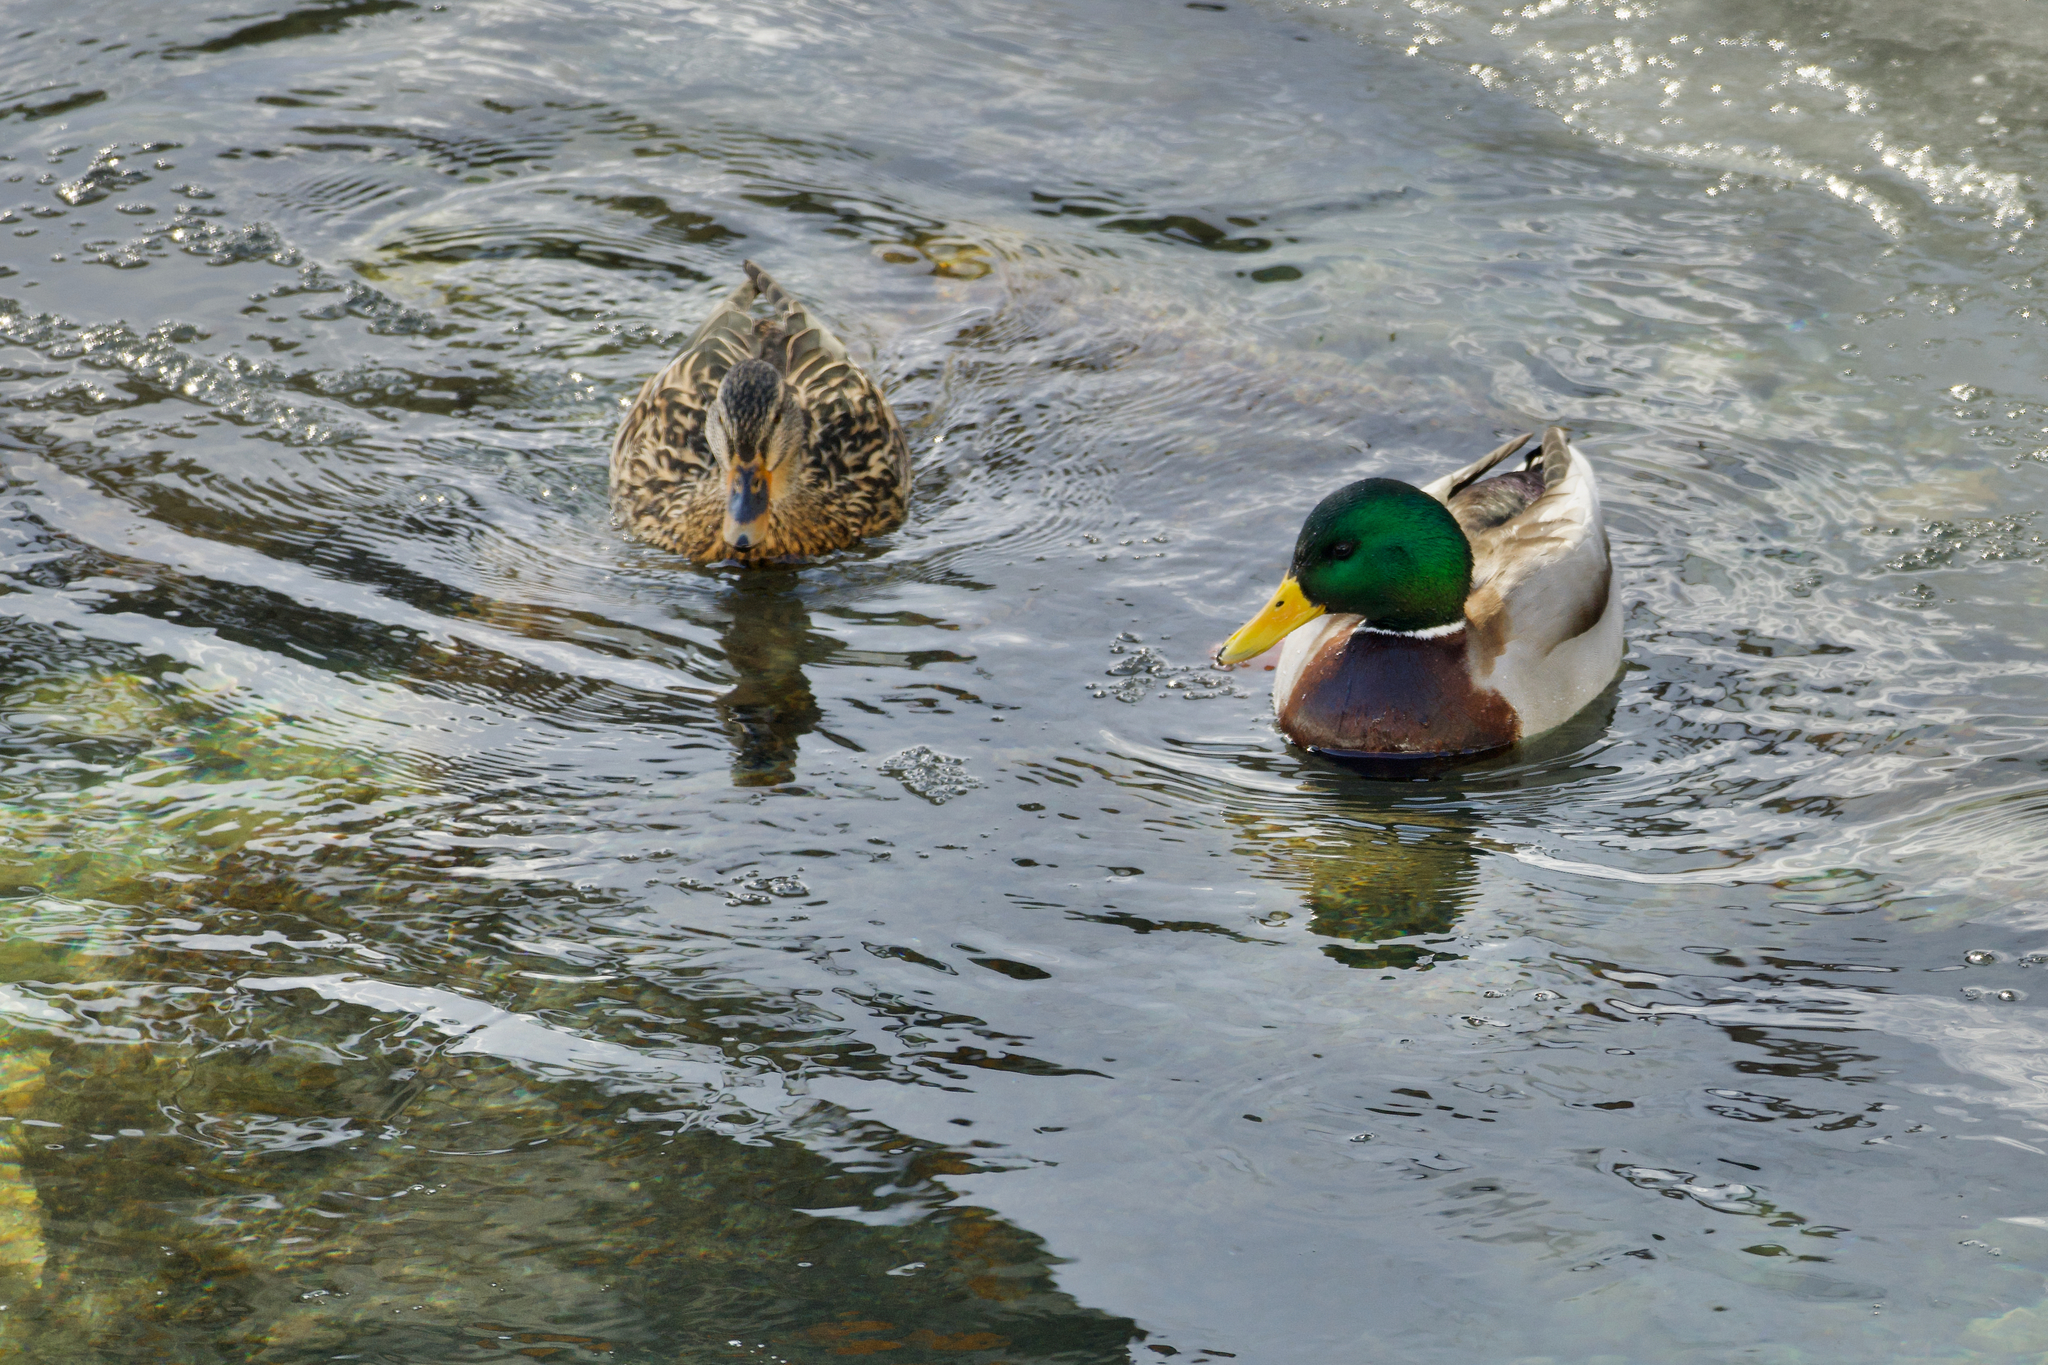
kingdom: Animalia
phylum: Chordata
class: Aves
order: Anseriformes
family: Anatidae
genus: Anas
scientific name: Anas platyrhynchos
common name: Mallard
